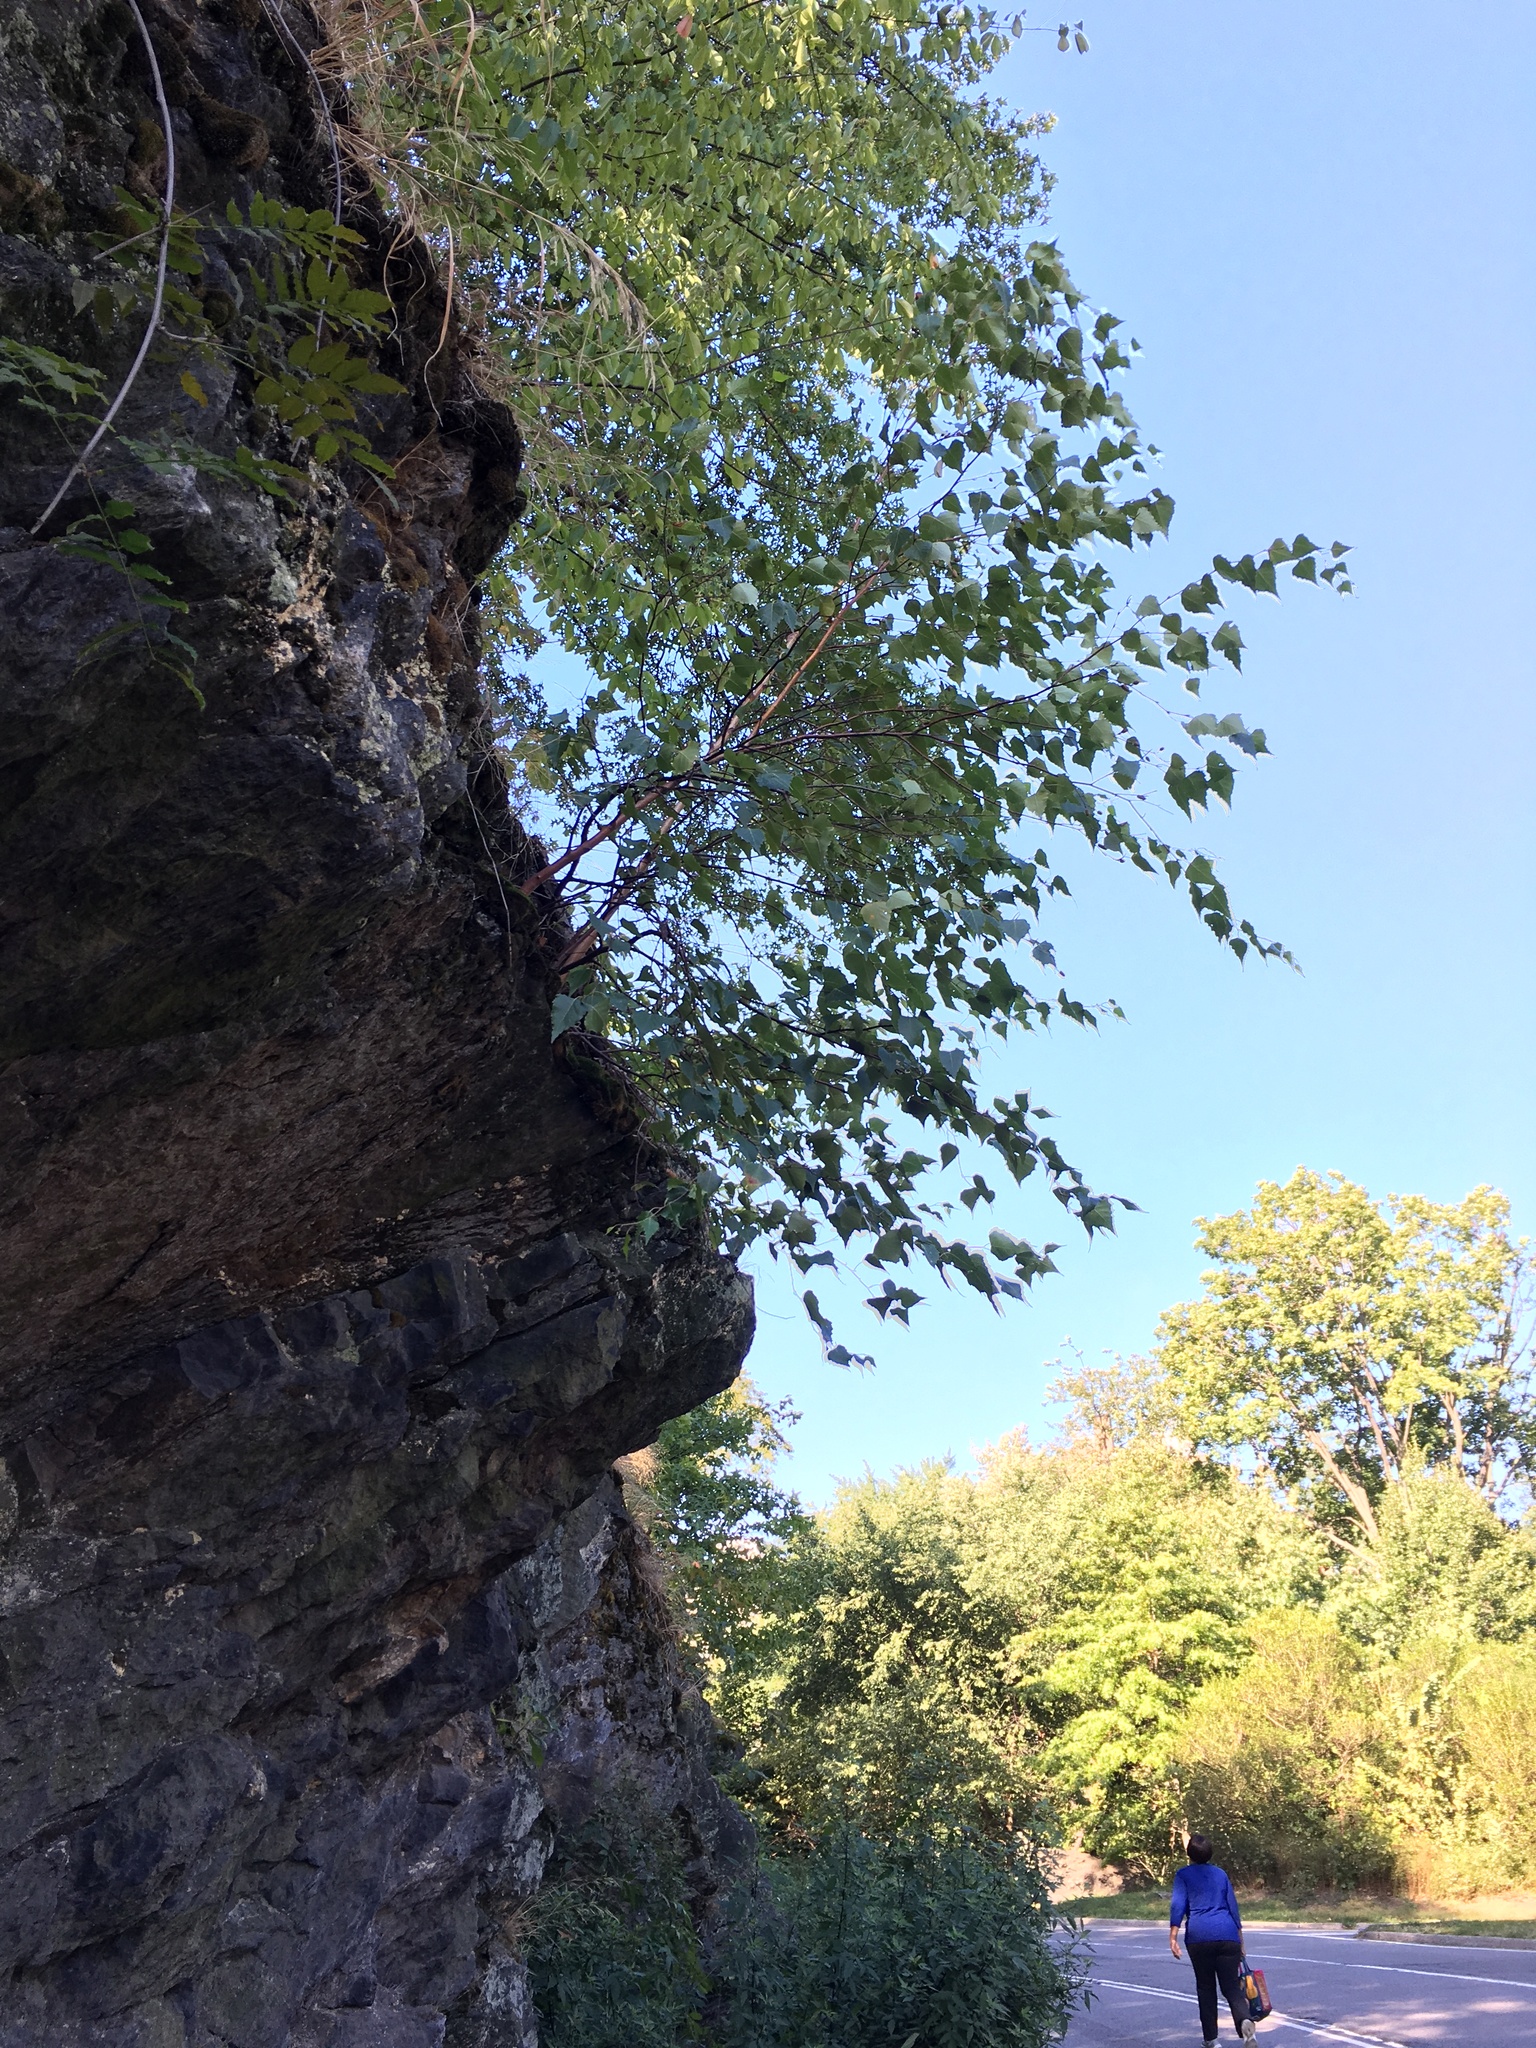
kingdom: Plantae
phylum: Tracheophyta
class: Magnoliopsida
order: Fagales
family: Betulaceae
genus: Betula
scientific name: Betula populifolia
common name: Fire birch
